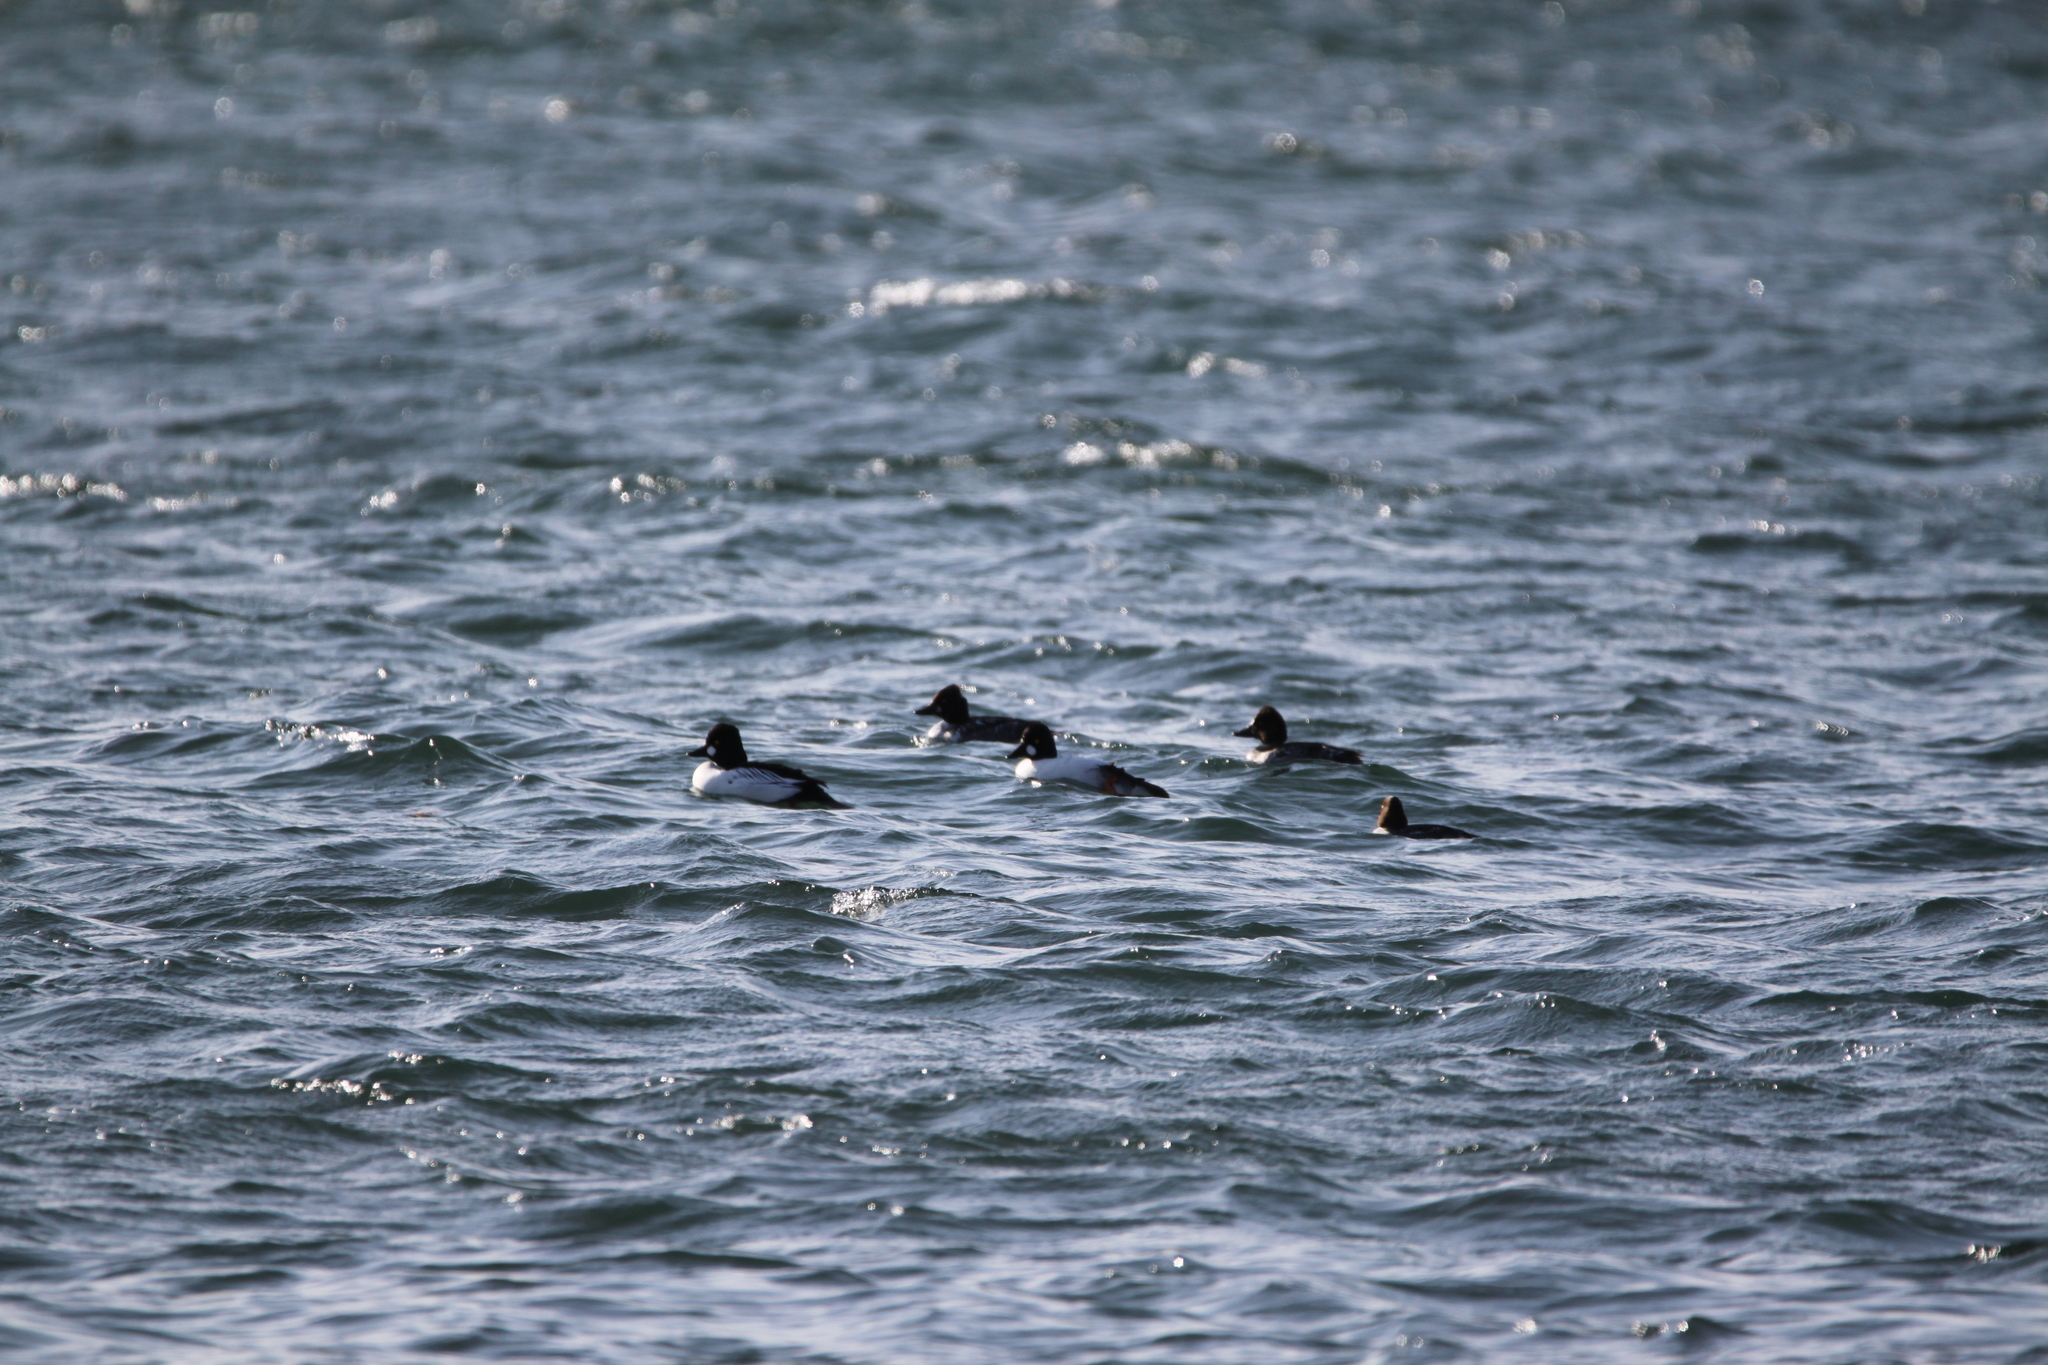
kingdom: Animalia
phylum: Chordata
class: Aves
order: Anseriformes
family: Anatidae
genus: Bucephala
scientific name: Bucephala clangula
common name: Common goldeneye
